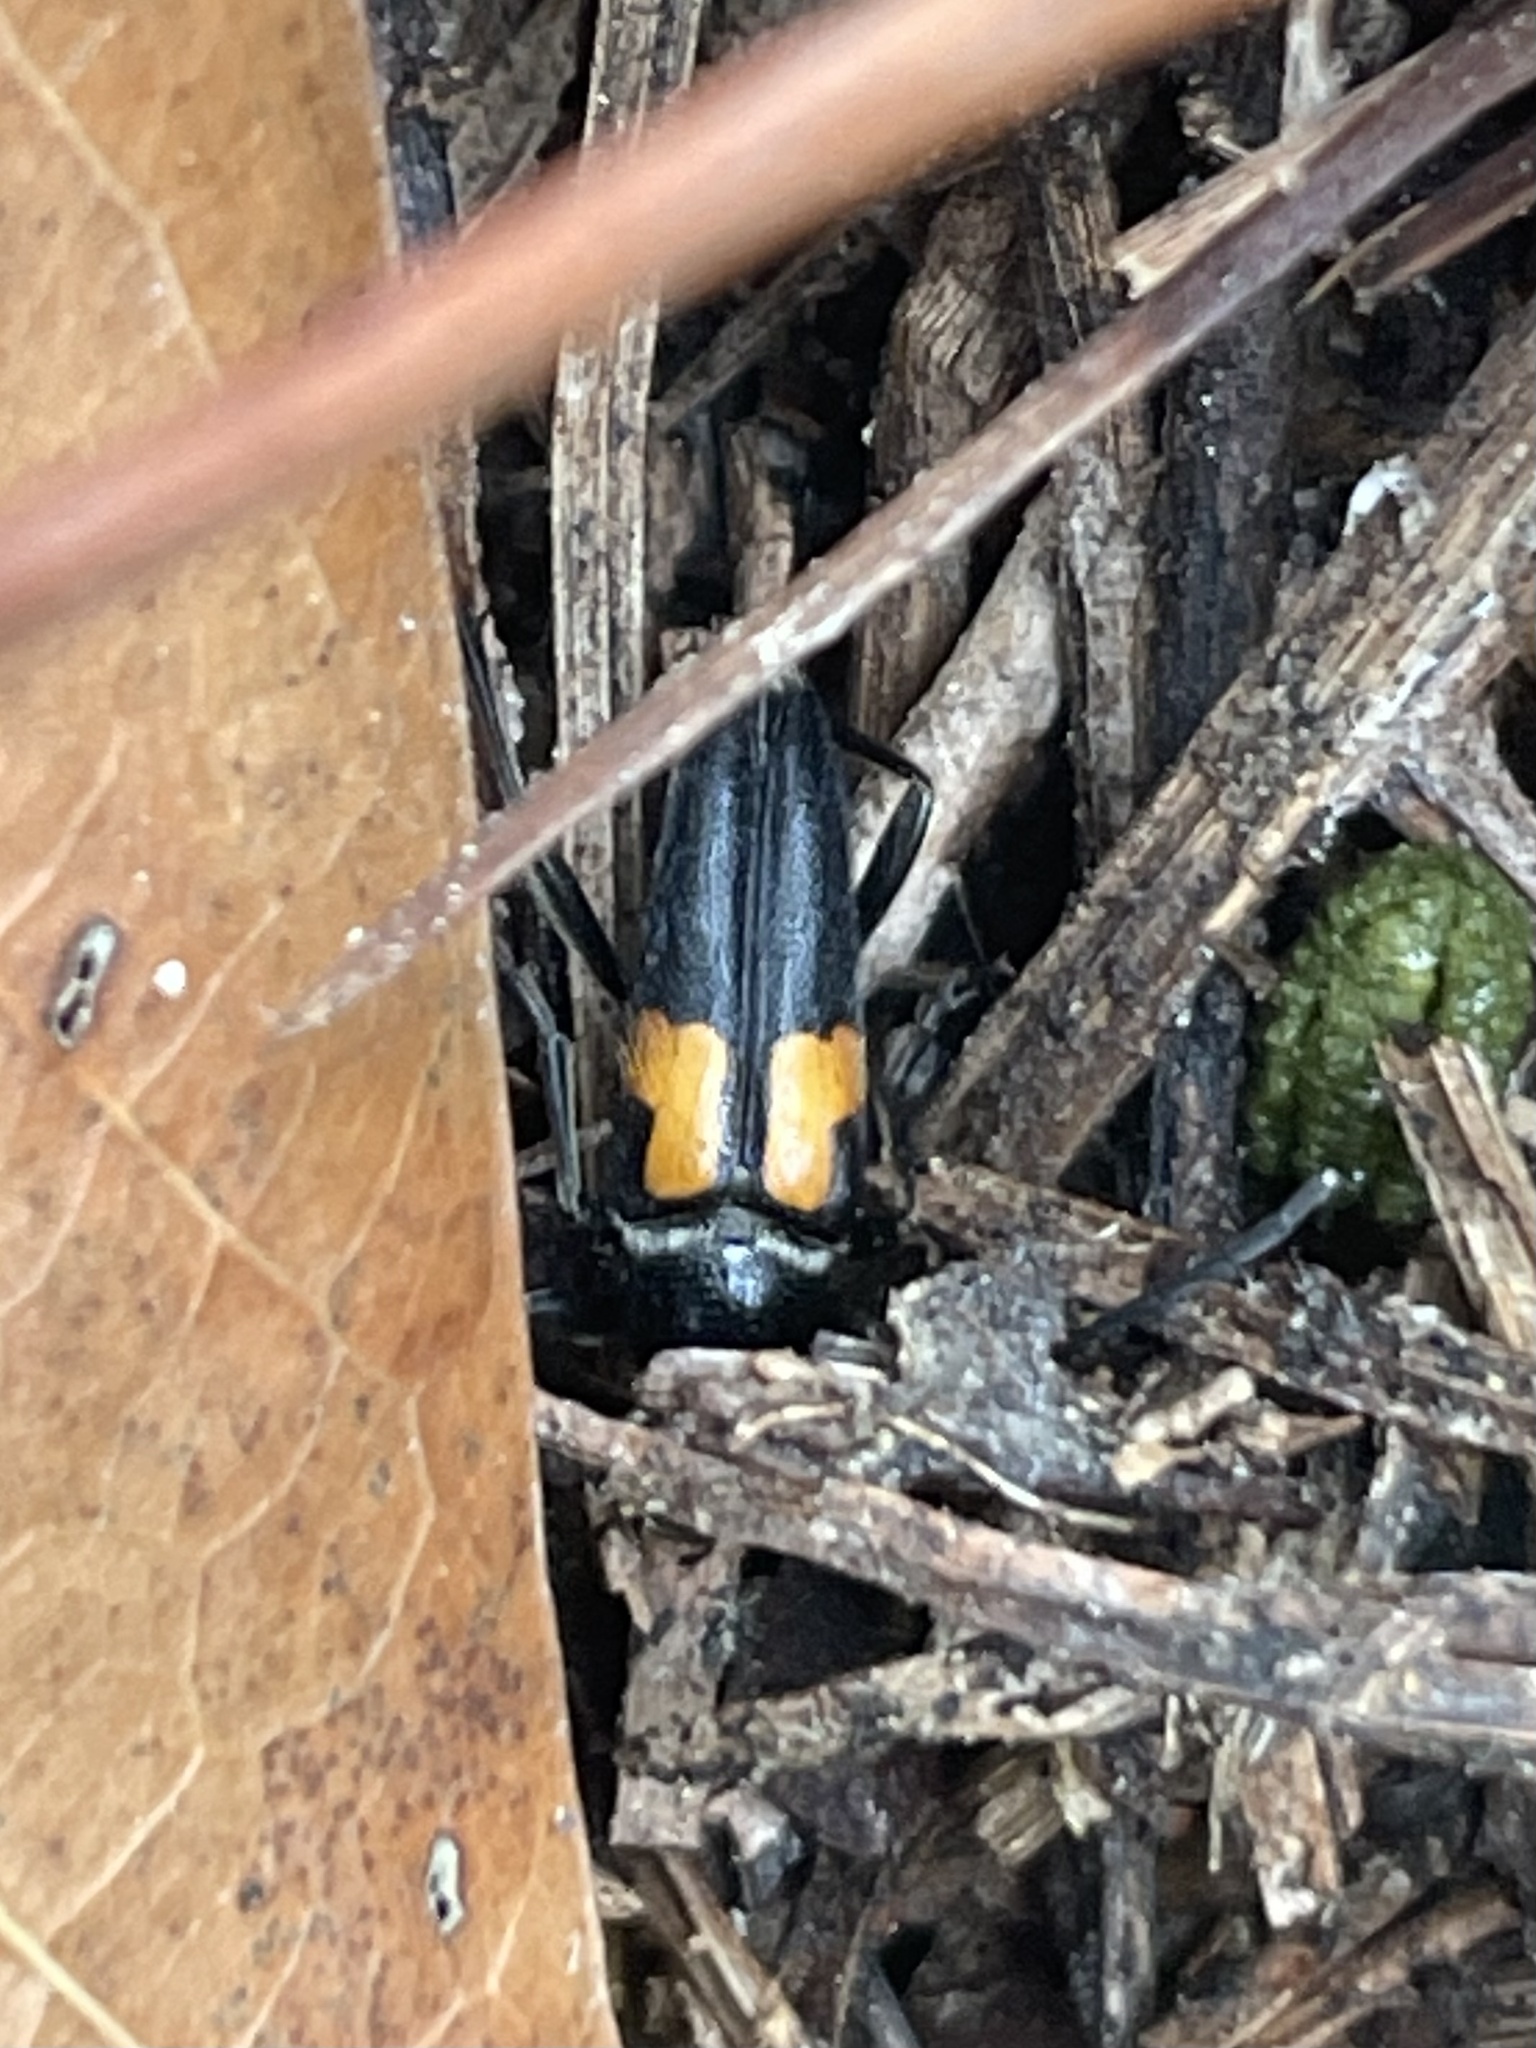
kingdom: Animalia
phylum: Arthropoda
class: Insecta
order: Coleoptera
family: Cerambycidae
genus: Typocerus
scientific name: Typocerus lunulatus
